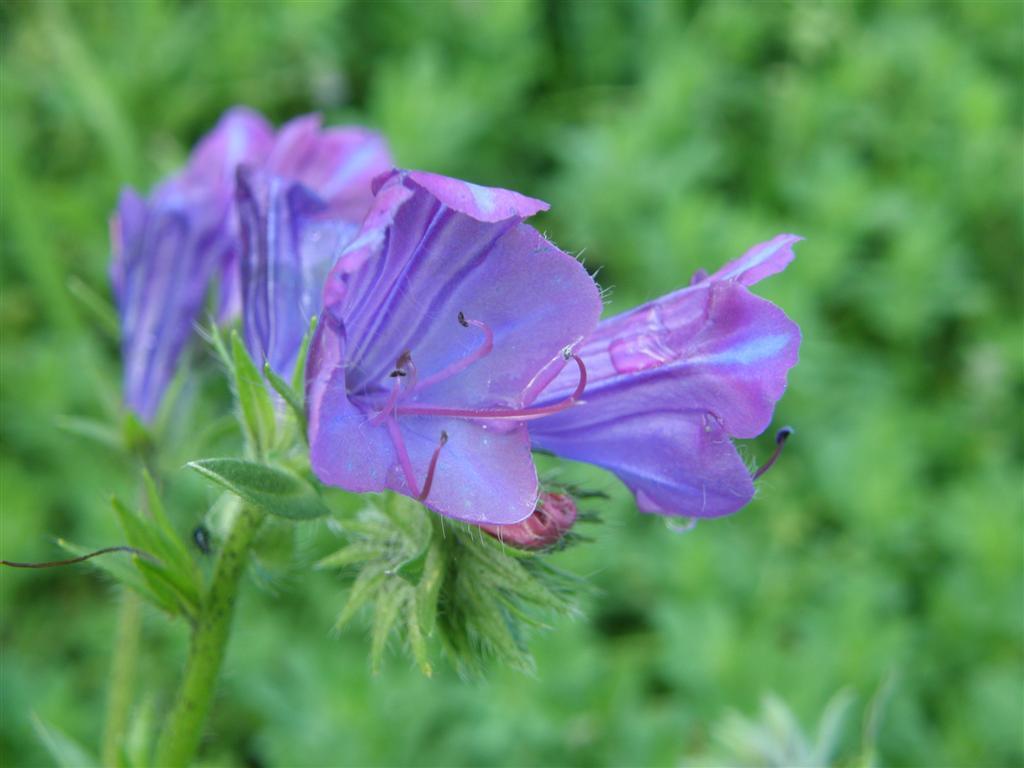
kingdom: Plantae
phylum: Tracheophyta
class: Magnoliopsida
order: Boraginales
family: Boraginaceae
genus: Echium
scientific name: Echium plantagineum
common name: Purple viper's-bugloss
